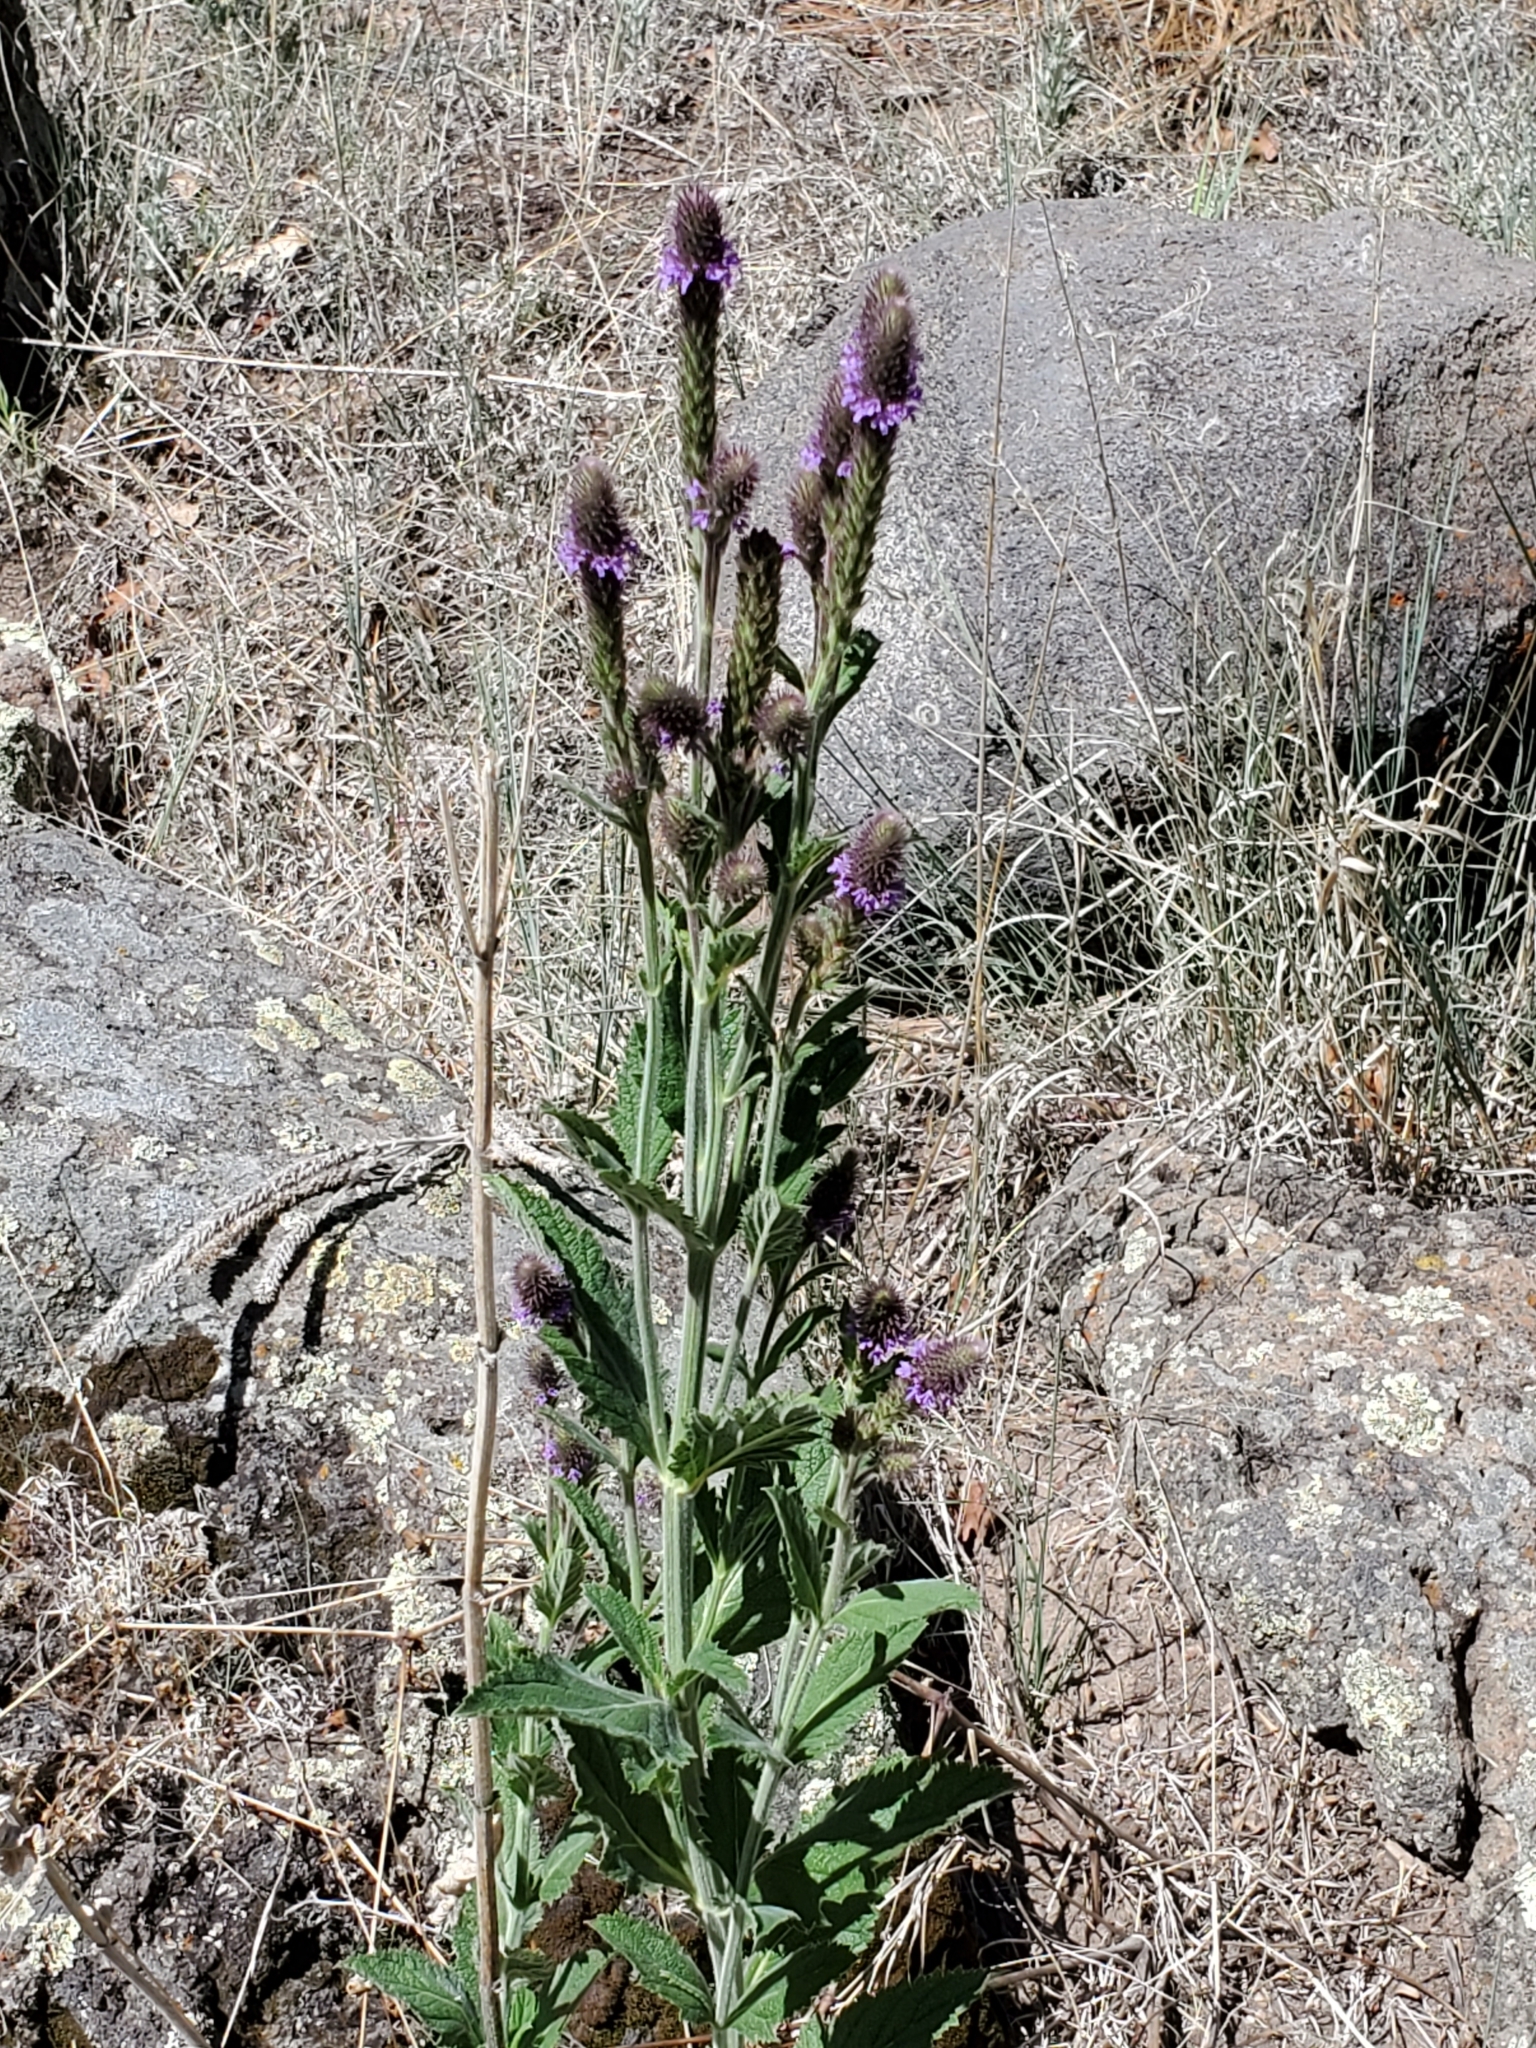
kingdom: Plantae
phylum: Tracheophyta
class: Magnoliopsida
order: Lamiales
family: Verbenaceae
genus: Verbena
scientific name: Verbena macdougalii
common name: New mexico vervain
